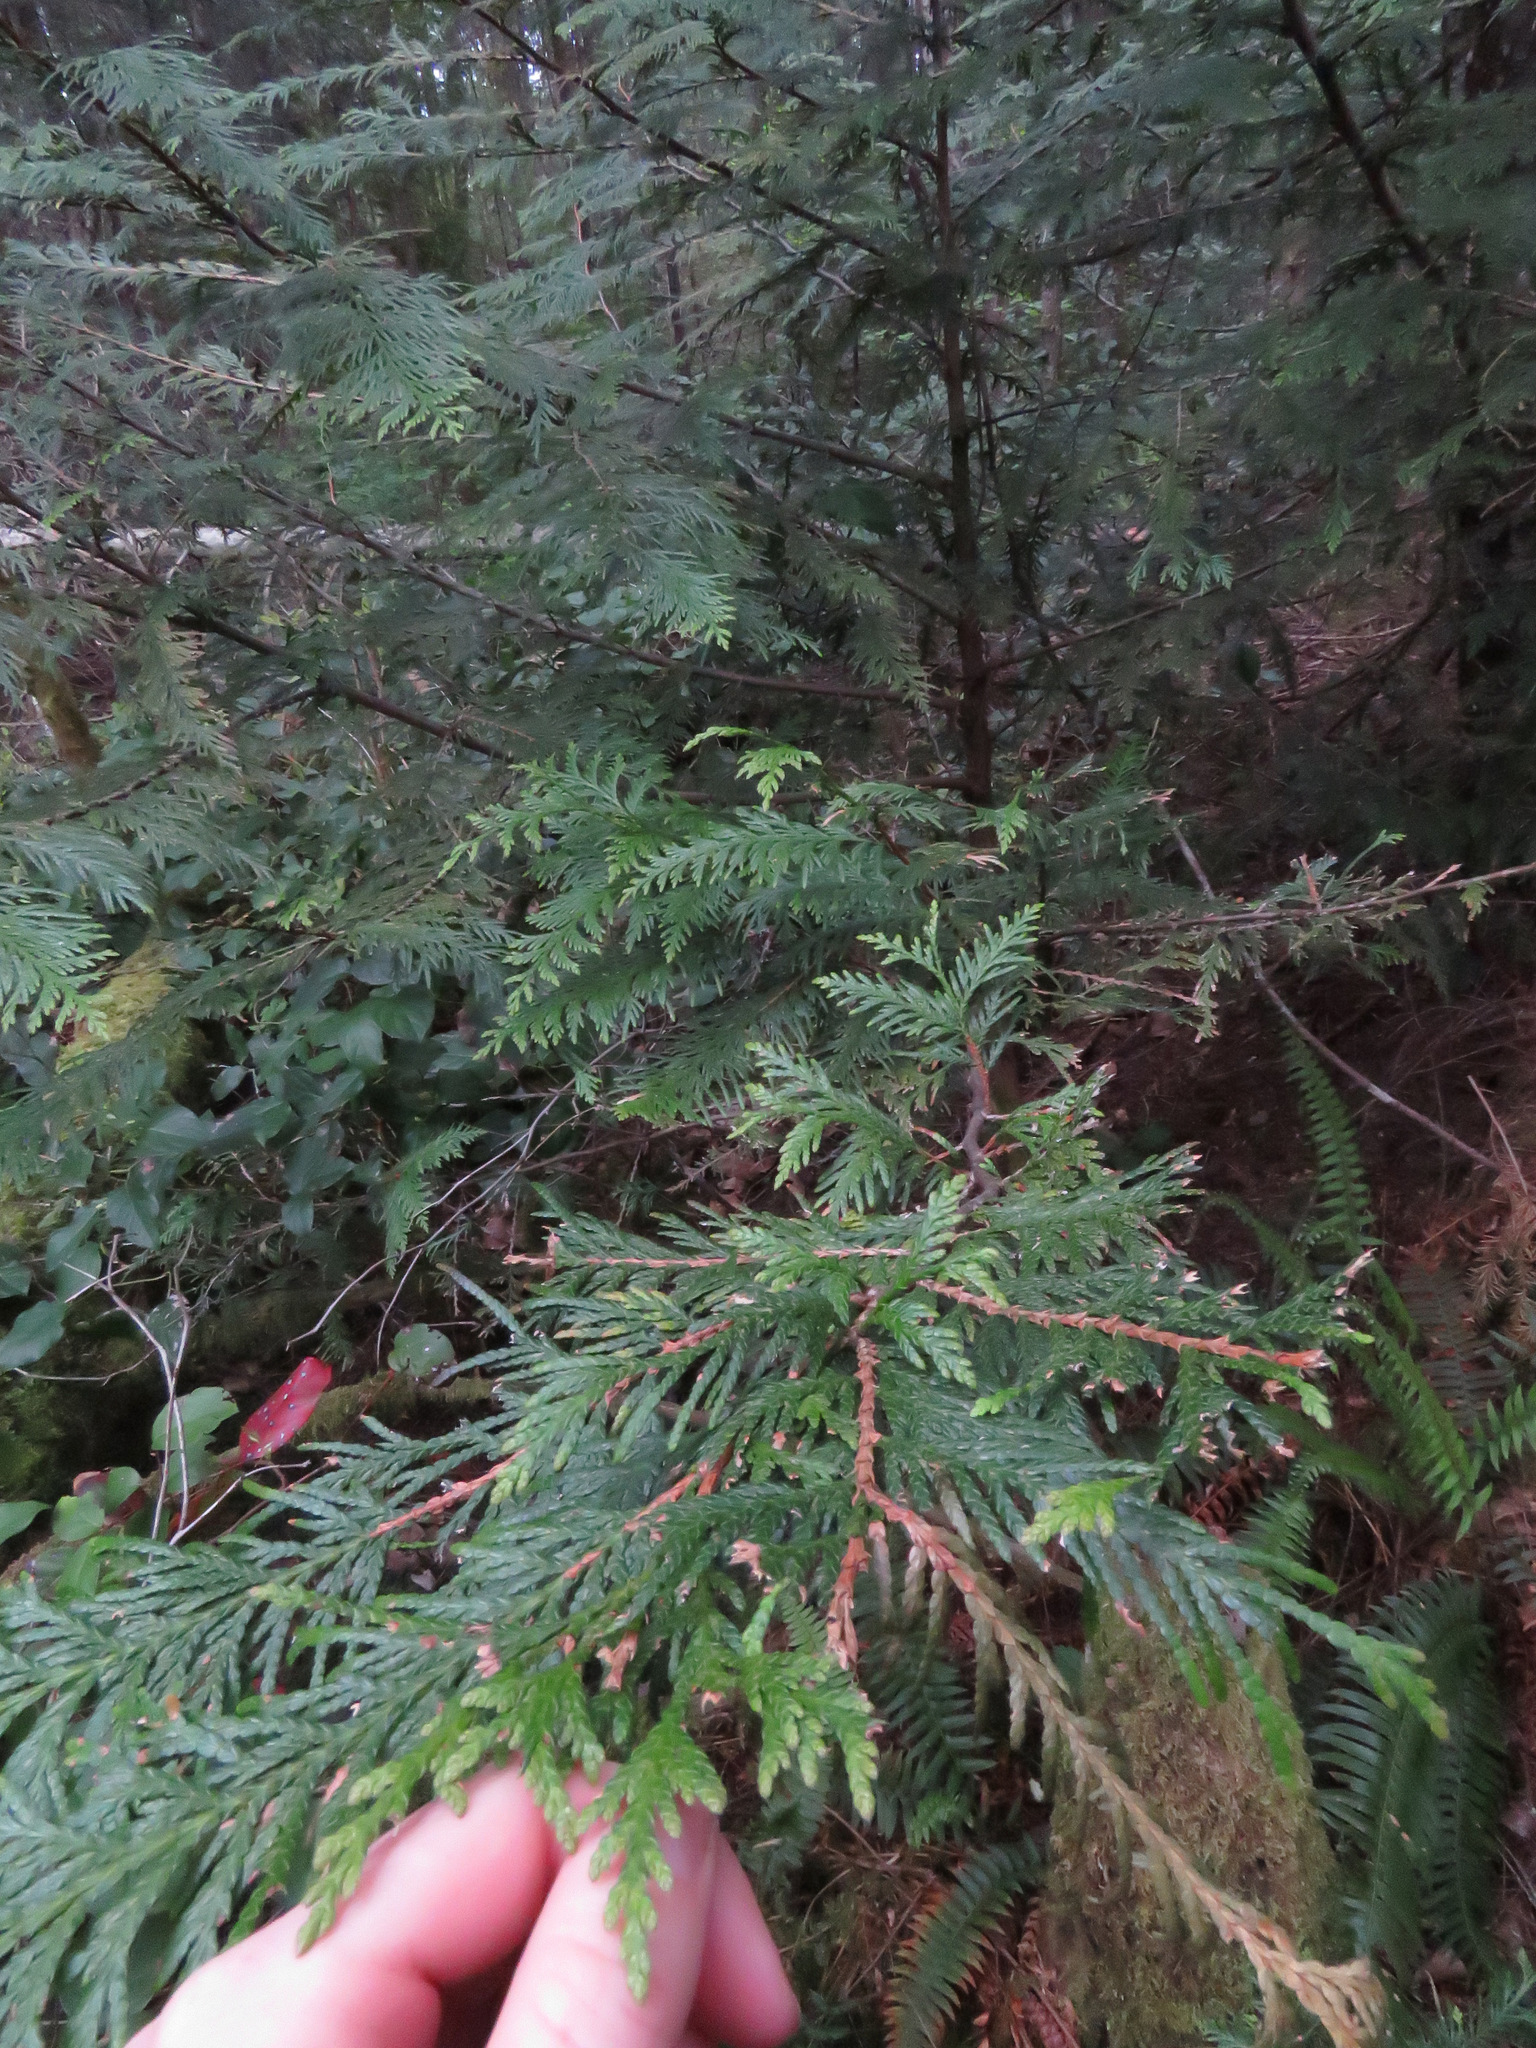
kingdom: Plantae
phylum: Tracheophyta
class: Pinopsida
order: Pinales
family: Cupressaceae
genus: Thuja
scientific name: Thuja plicata
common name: Western red-cedar
